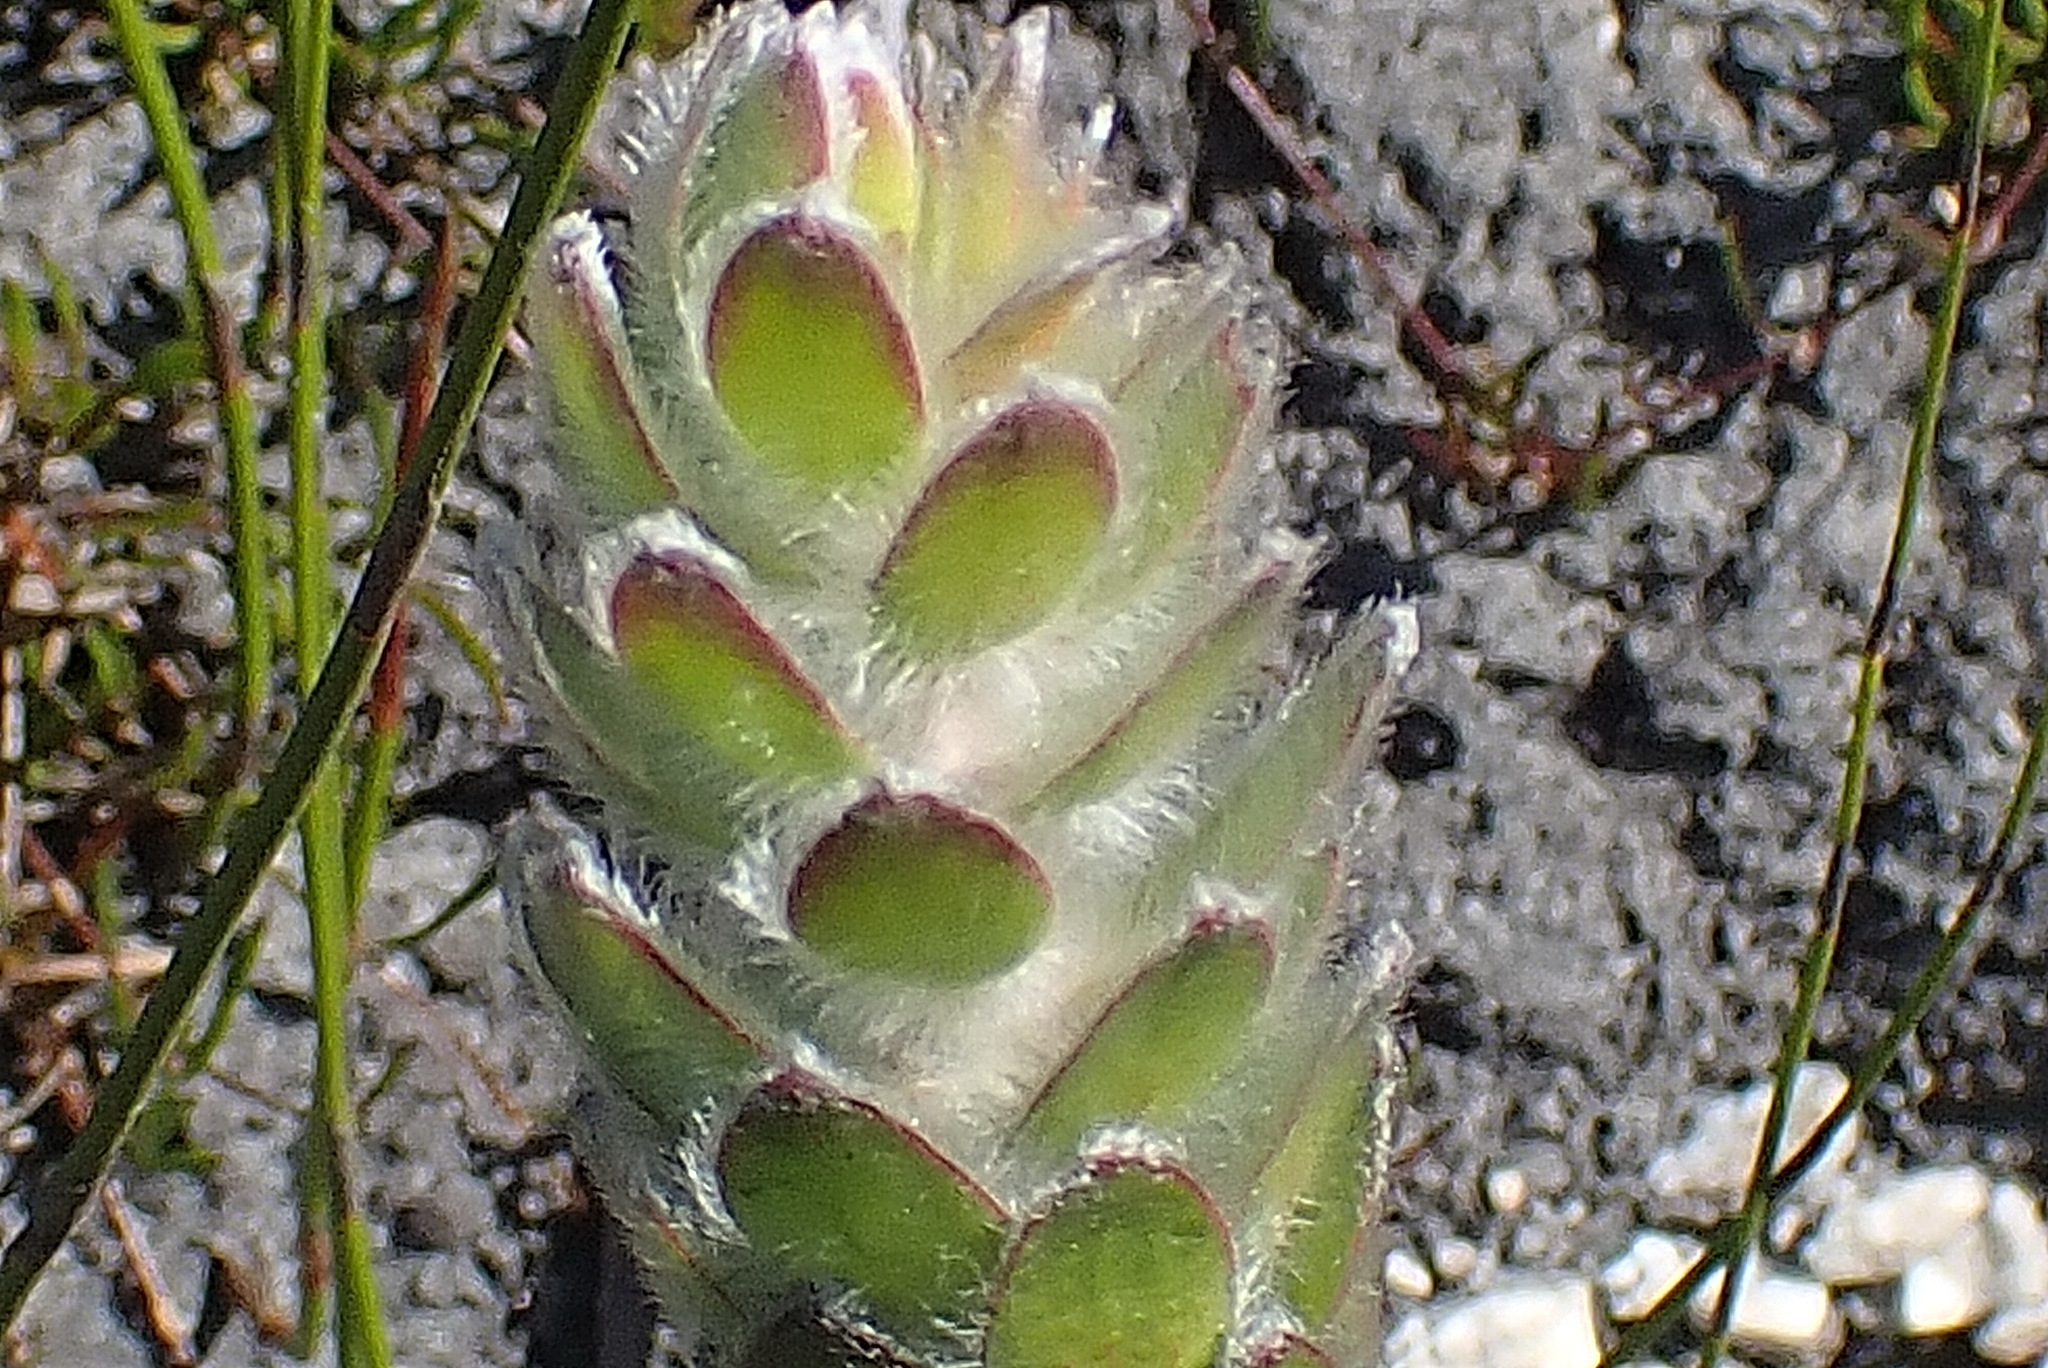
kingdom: Plantae
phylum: Tracheophyta
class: Magnoliopsida
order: Proteales
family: Proteaceae
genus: Mimetes
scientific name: Mimetes pauciflora
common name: Three-flowered pagoda
